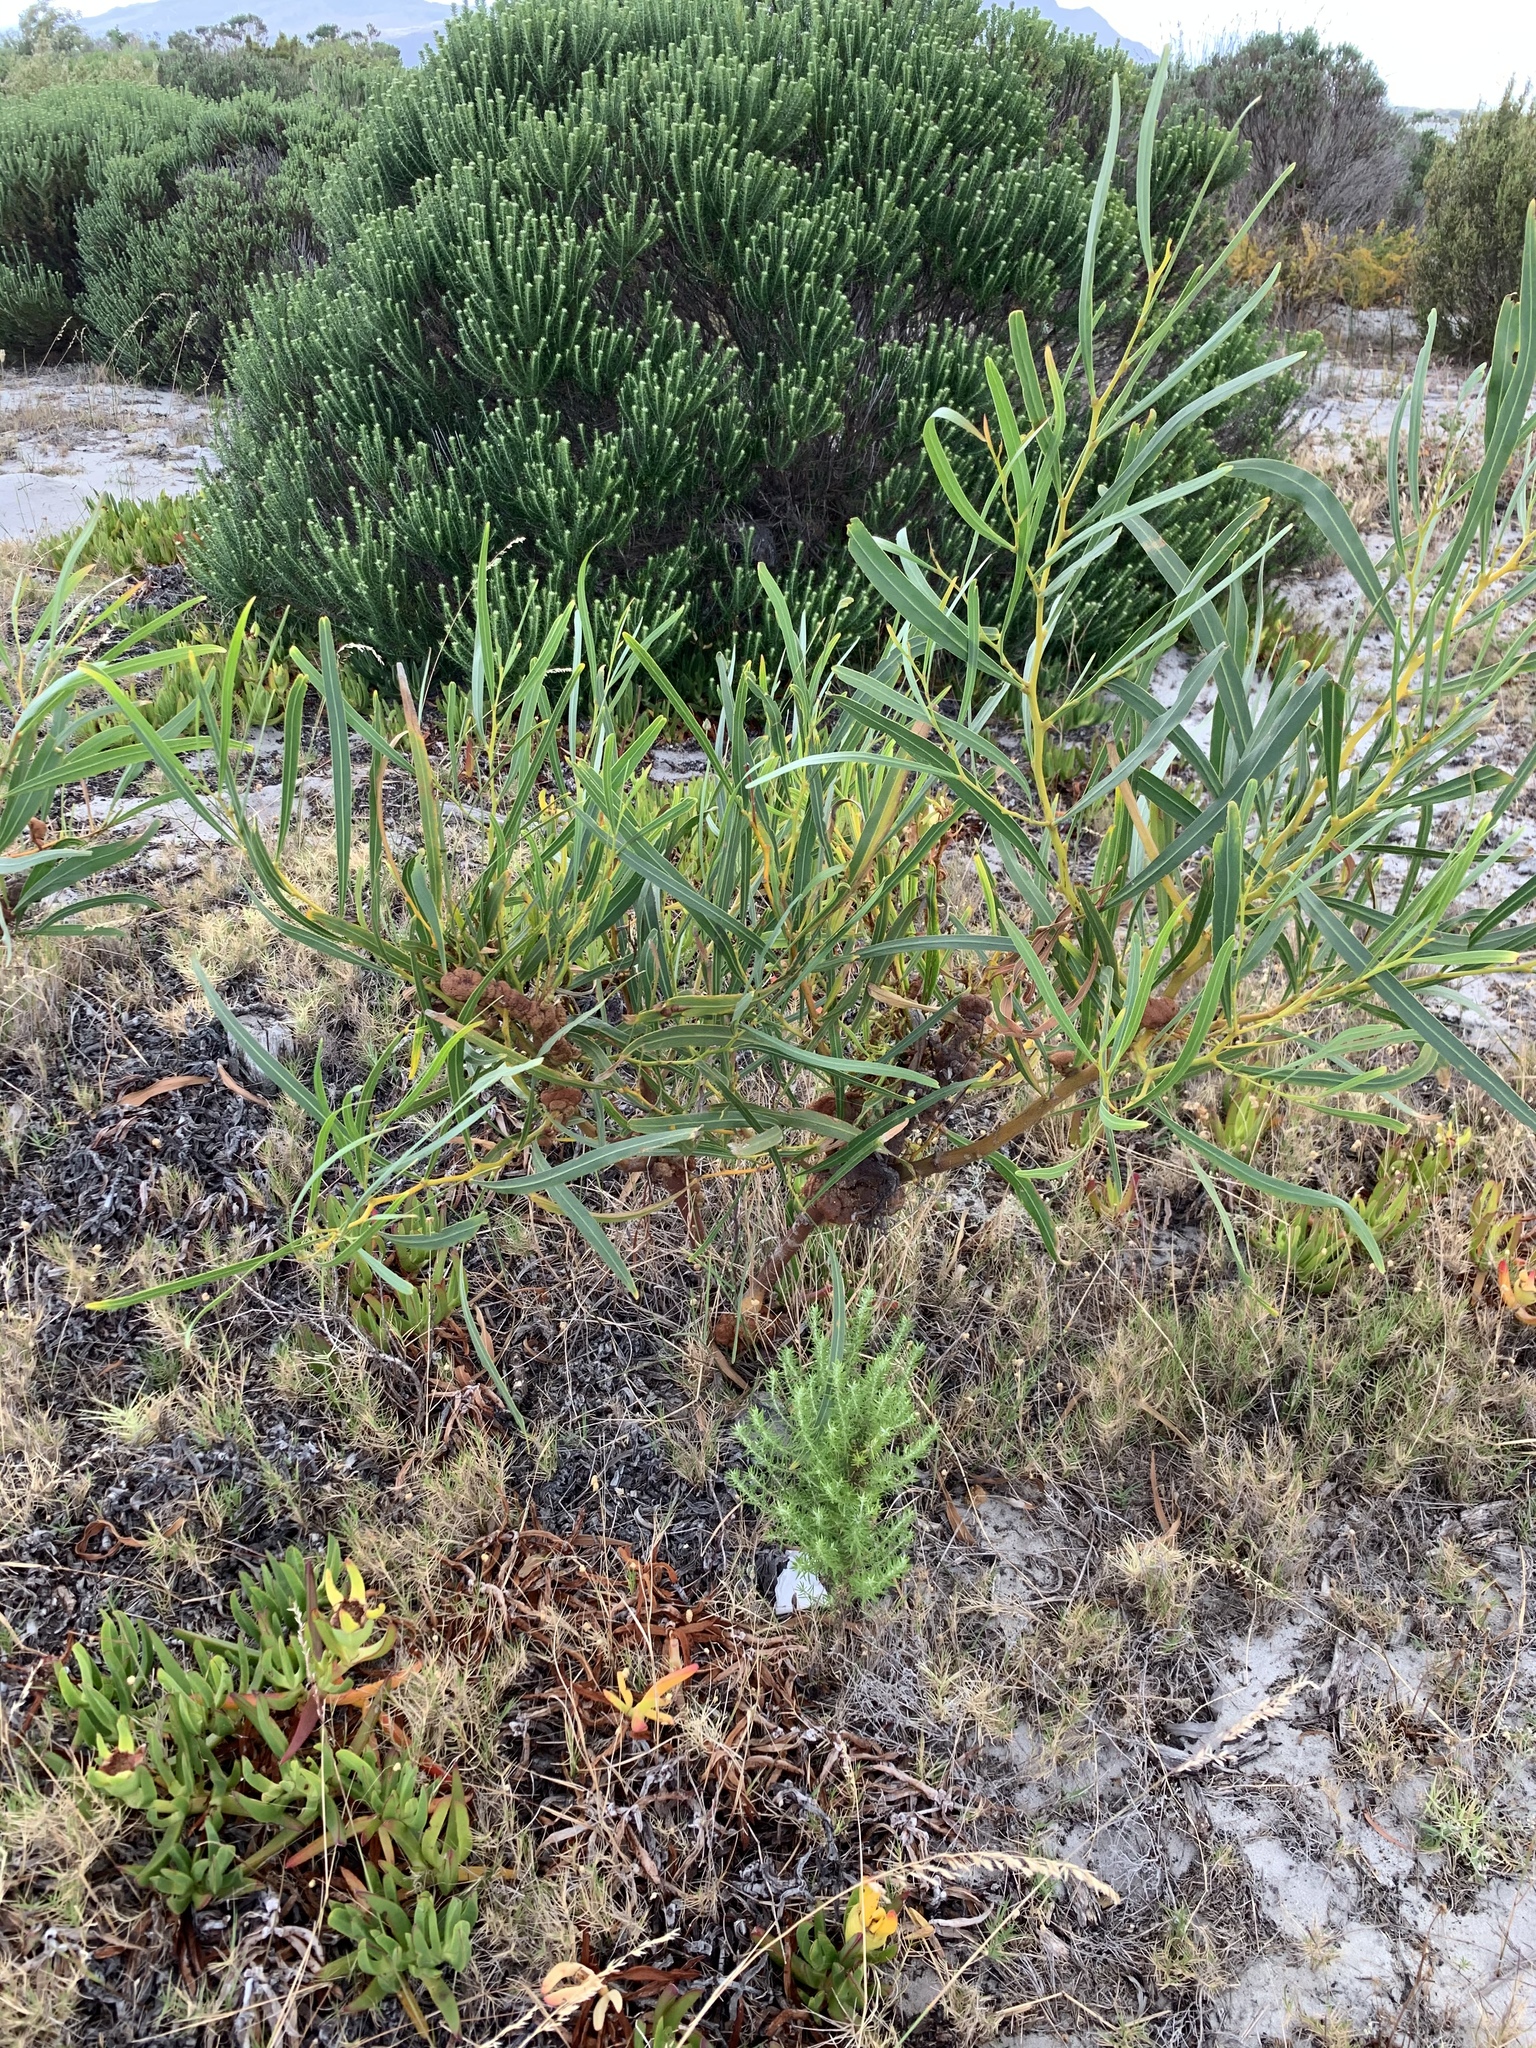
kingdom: Plantae
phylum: Tracheophyta
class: Magnoliopsida
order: Fabales
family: Fabaceae
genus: Acacia
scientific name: Acacia saligna
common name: Orange wattle
